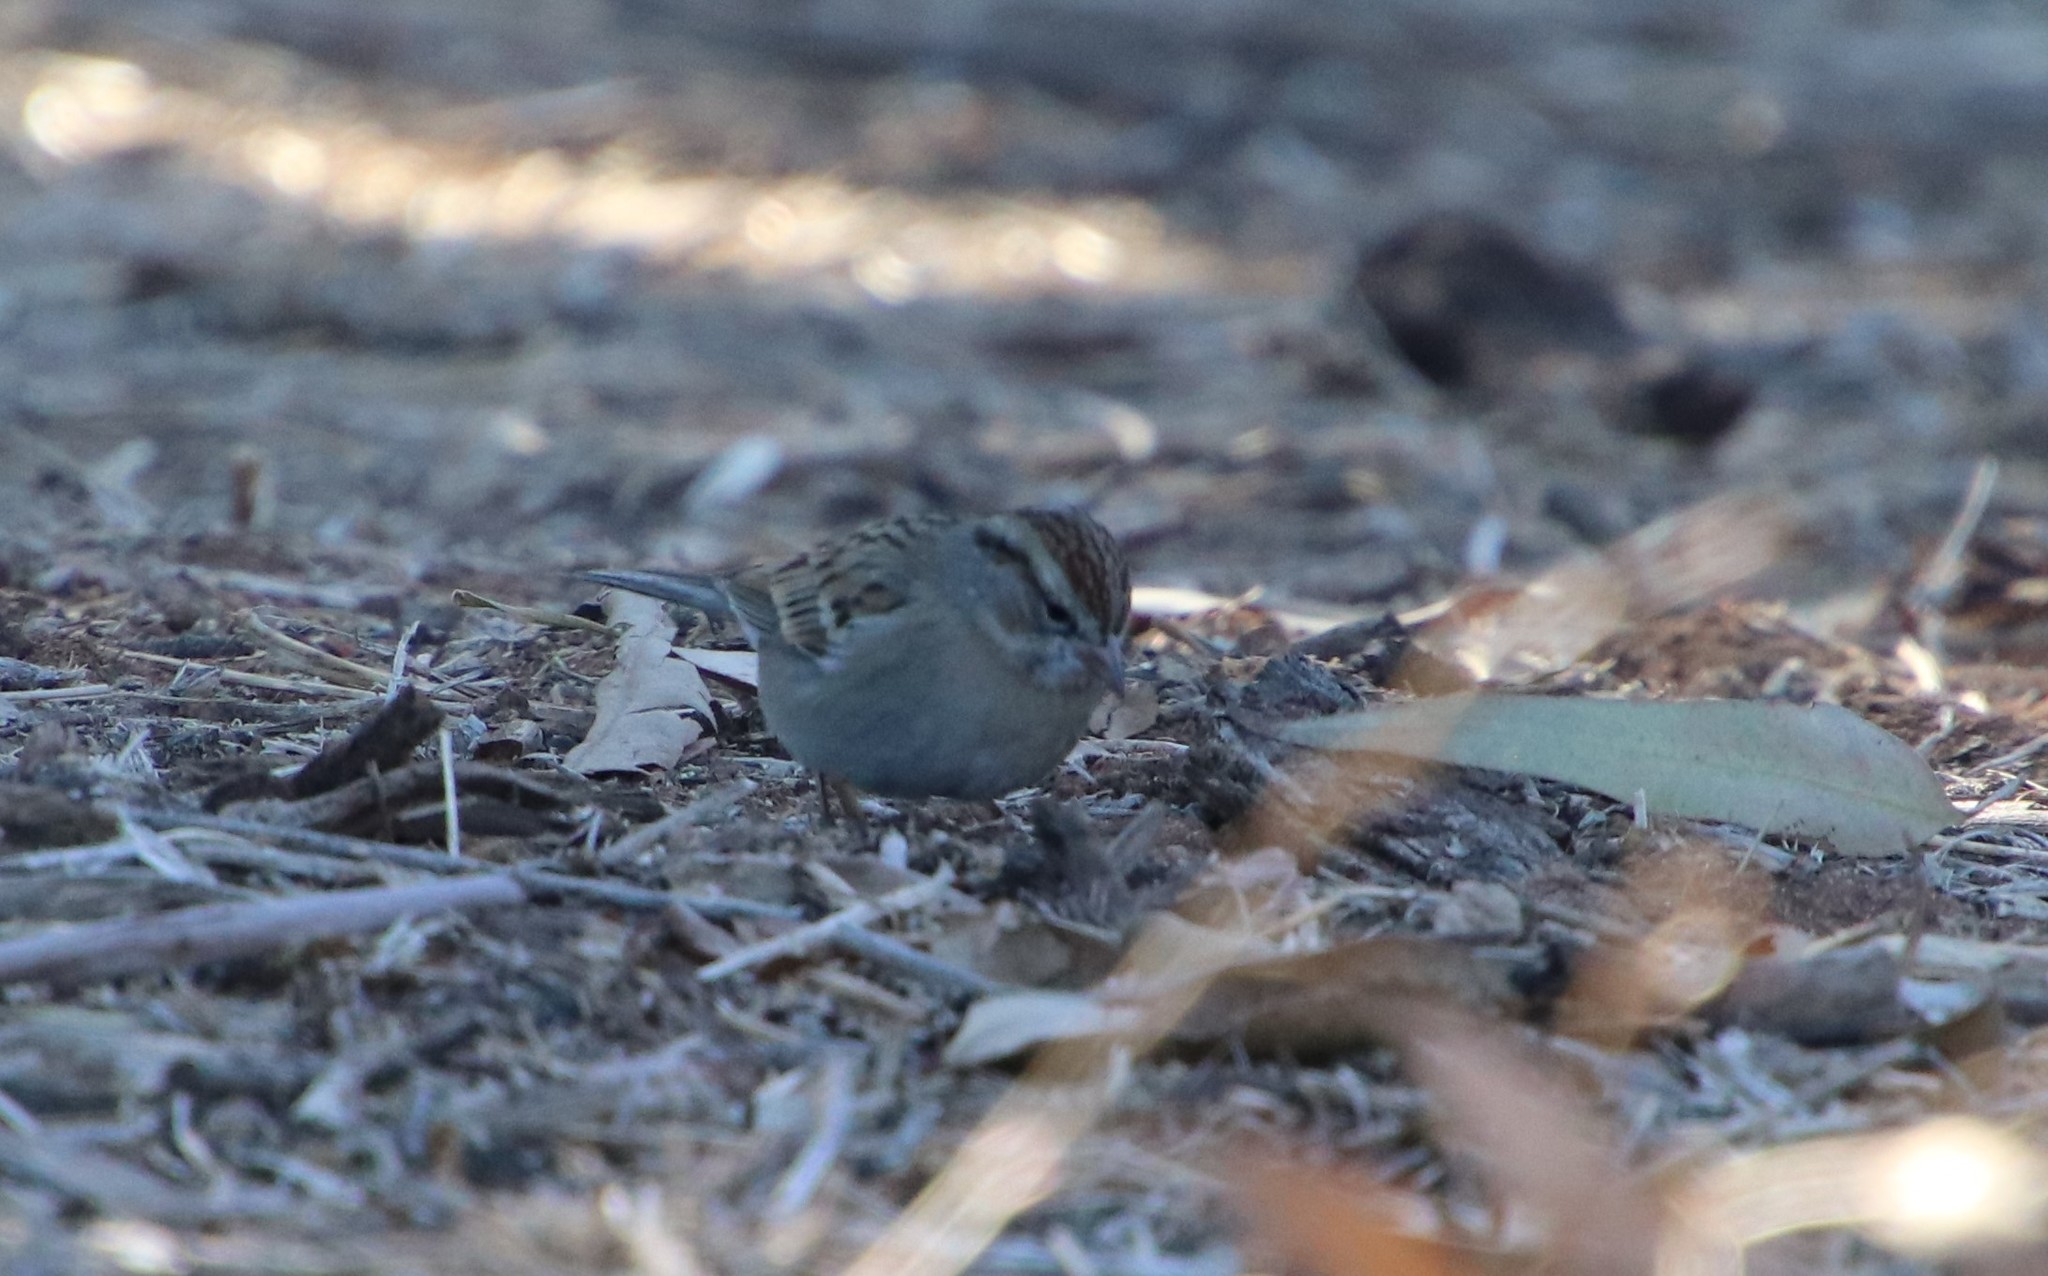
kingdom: Animalia
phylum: Chordata
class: Aves
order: Passeriformes
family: Passerellidae
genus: Spizella
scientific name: Spizella passerina
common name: Chipping sparrow
